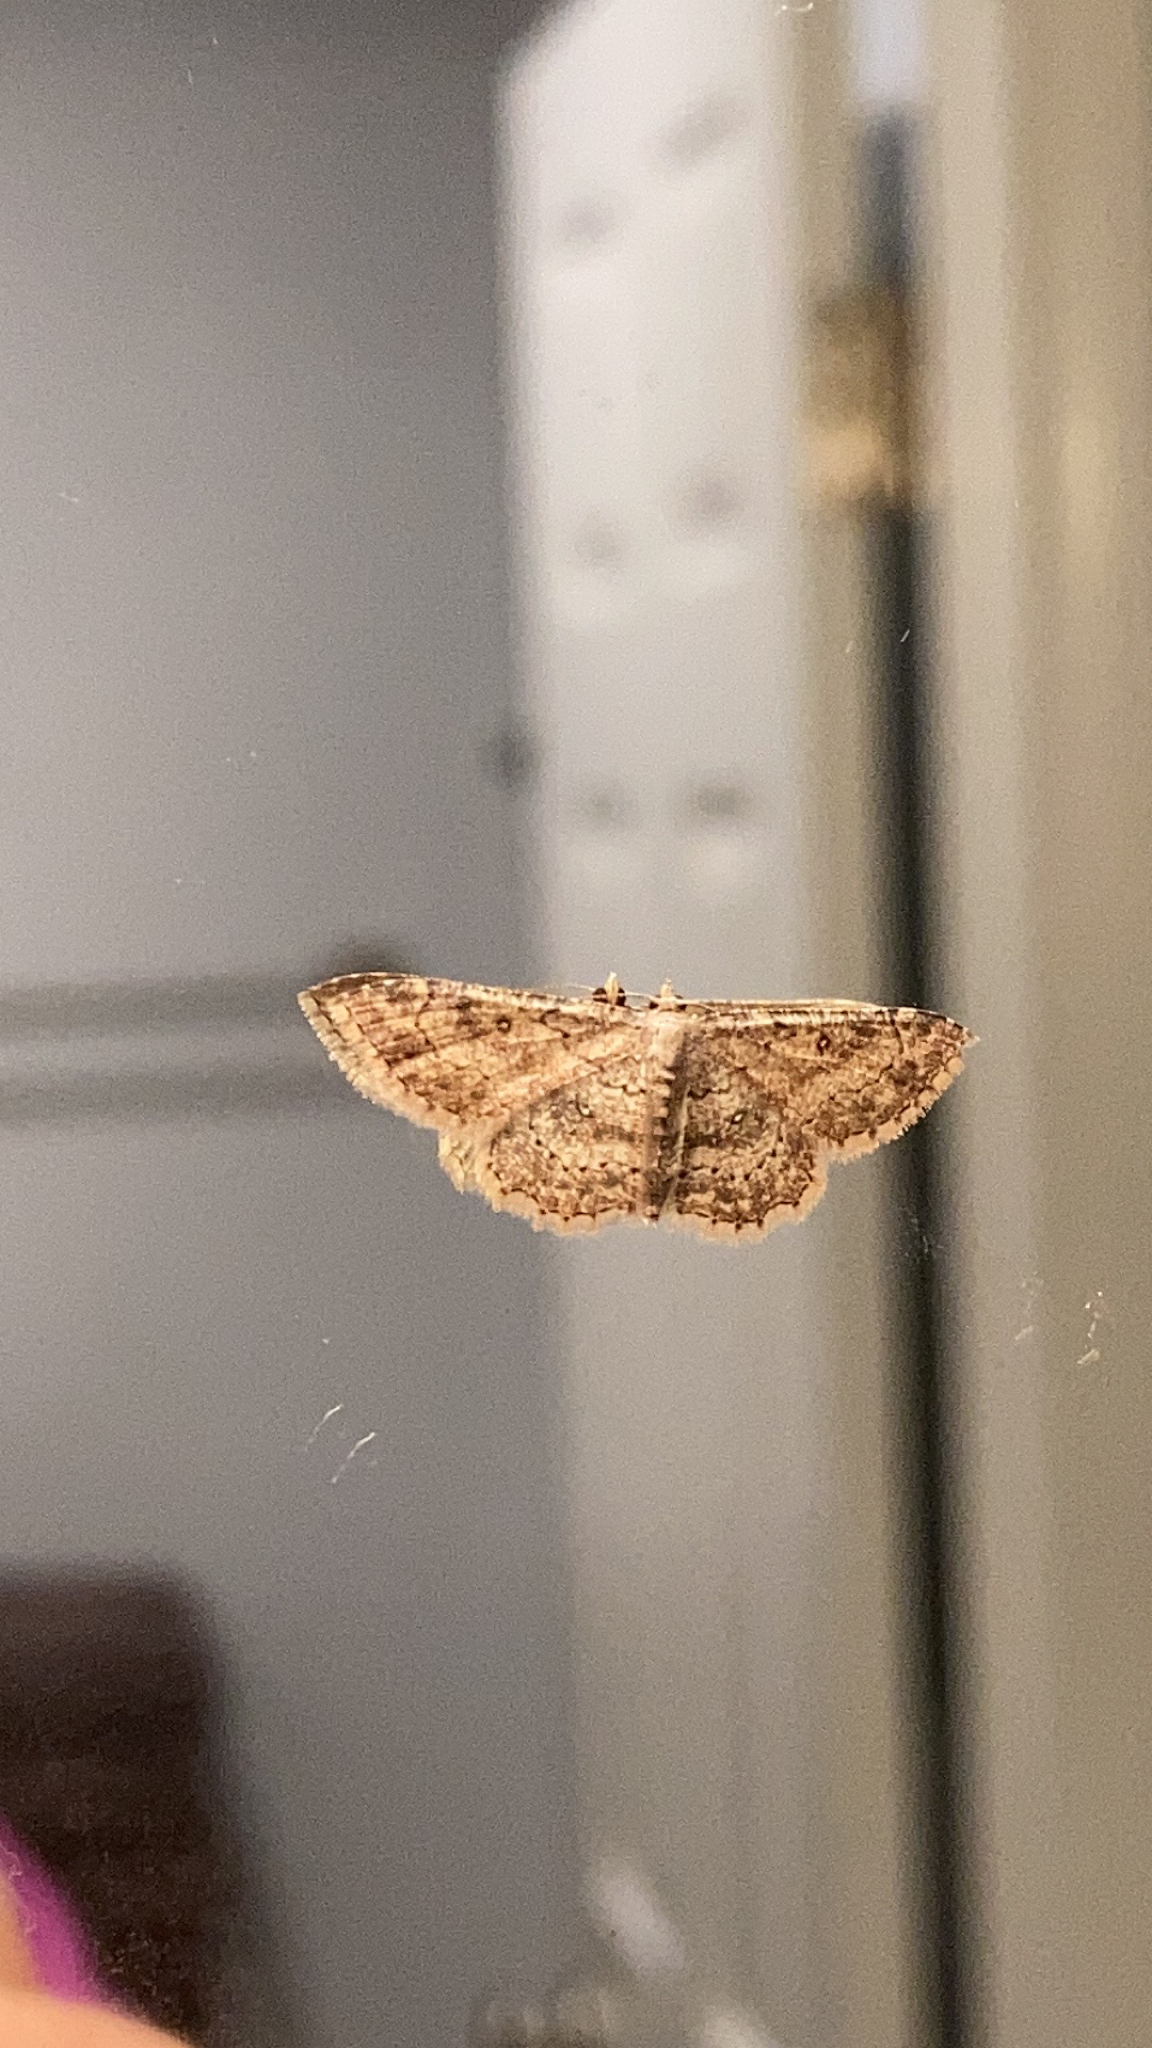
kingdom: Animalia
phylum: Arthropoda
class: Insecta
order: Lepidoptera
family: Geometridae
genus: Cyclophora
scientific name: Cyclophora nanaria
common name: Cankerworm
